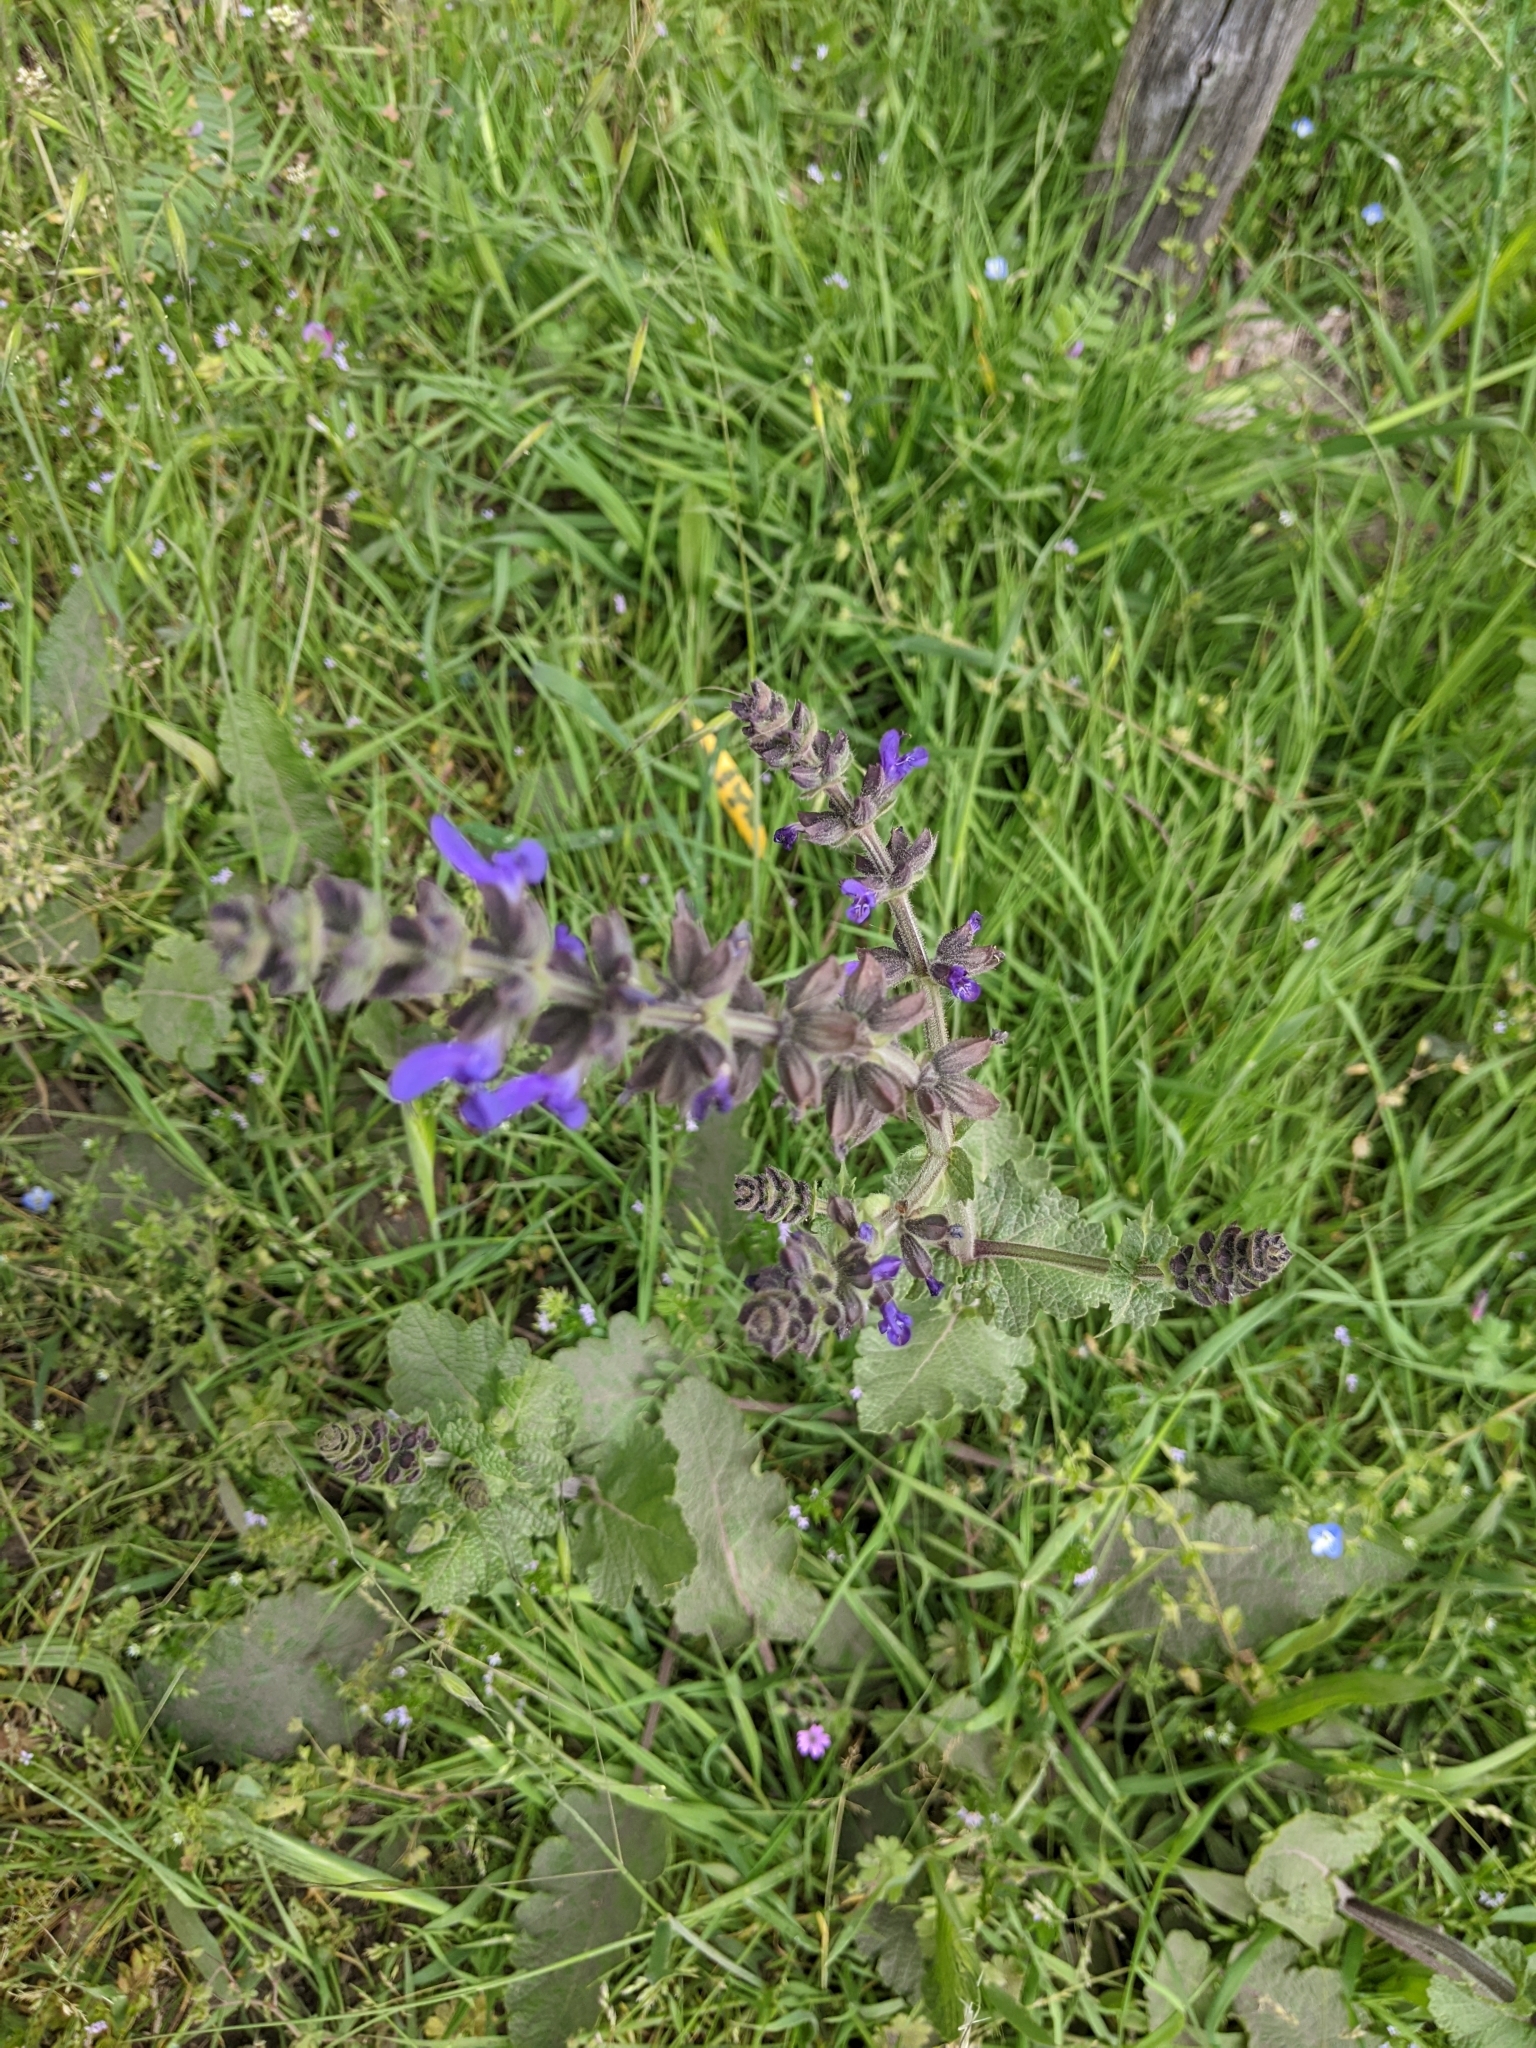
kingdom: Plantae
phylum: Tracheophyta
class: Magnoliopsida
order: Lamiales
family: Lamiaceae
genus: Salvia
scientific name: Salvia verbenaca
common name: Wild clary
